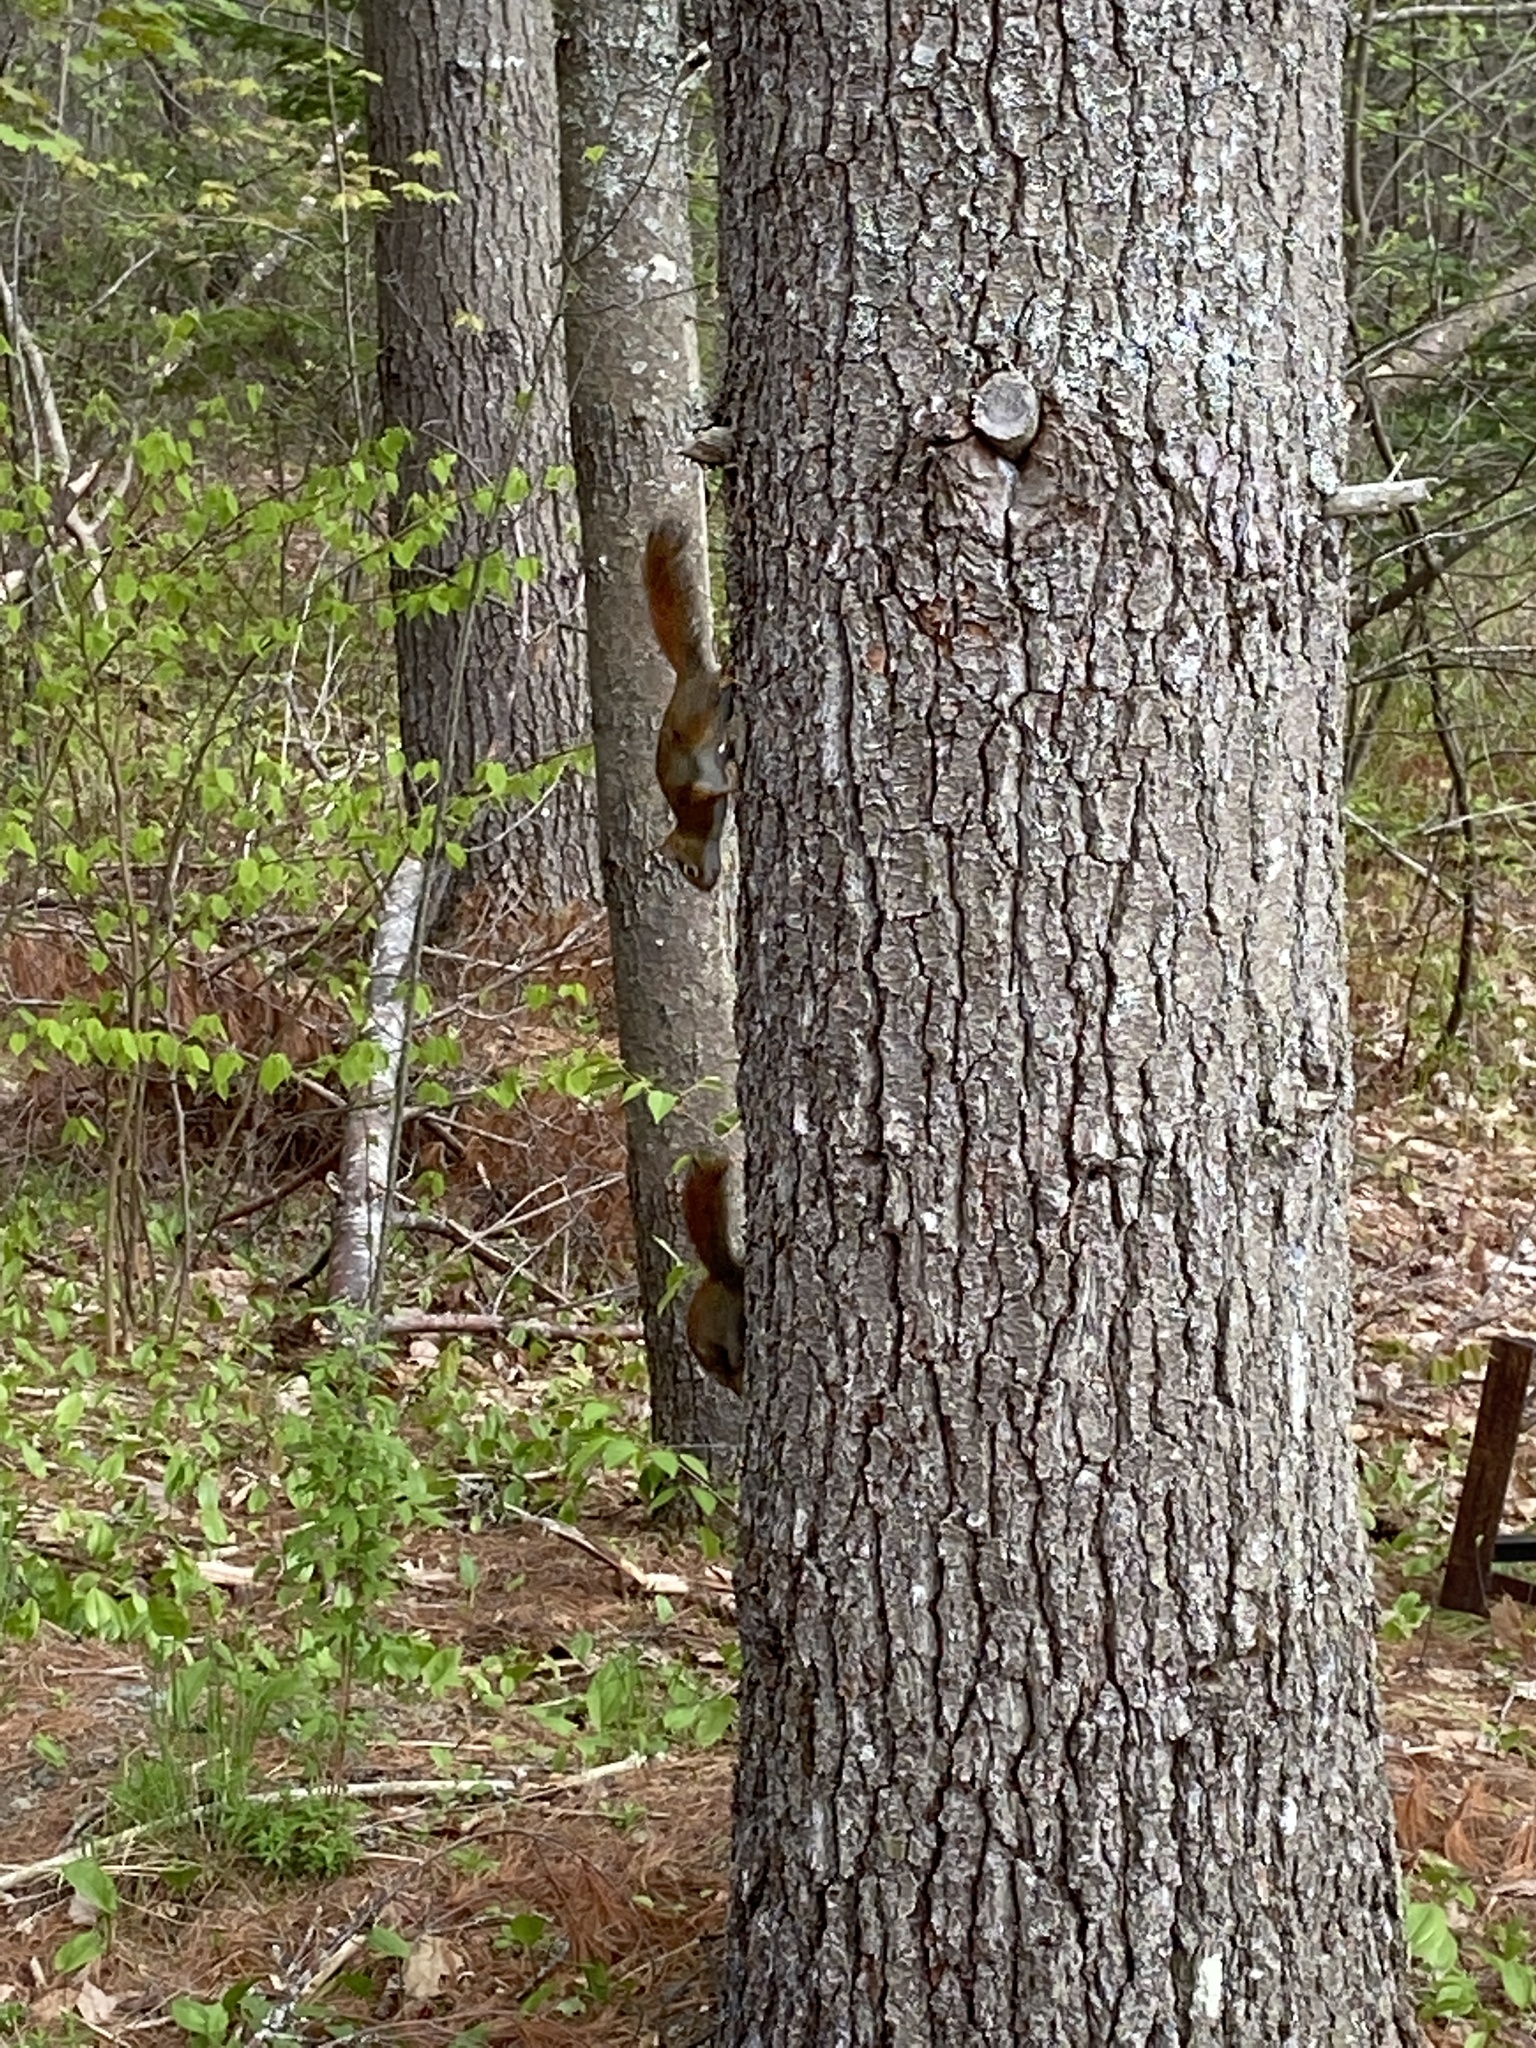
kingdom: Animalia
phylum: Chordata
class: Mammalia
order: Rodentia
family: Sciuridae
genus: Tamiasciurus
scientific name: Tamiasciurus hudsonicus
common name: Red squirrel
